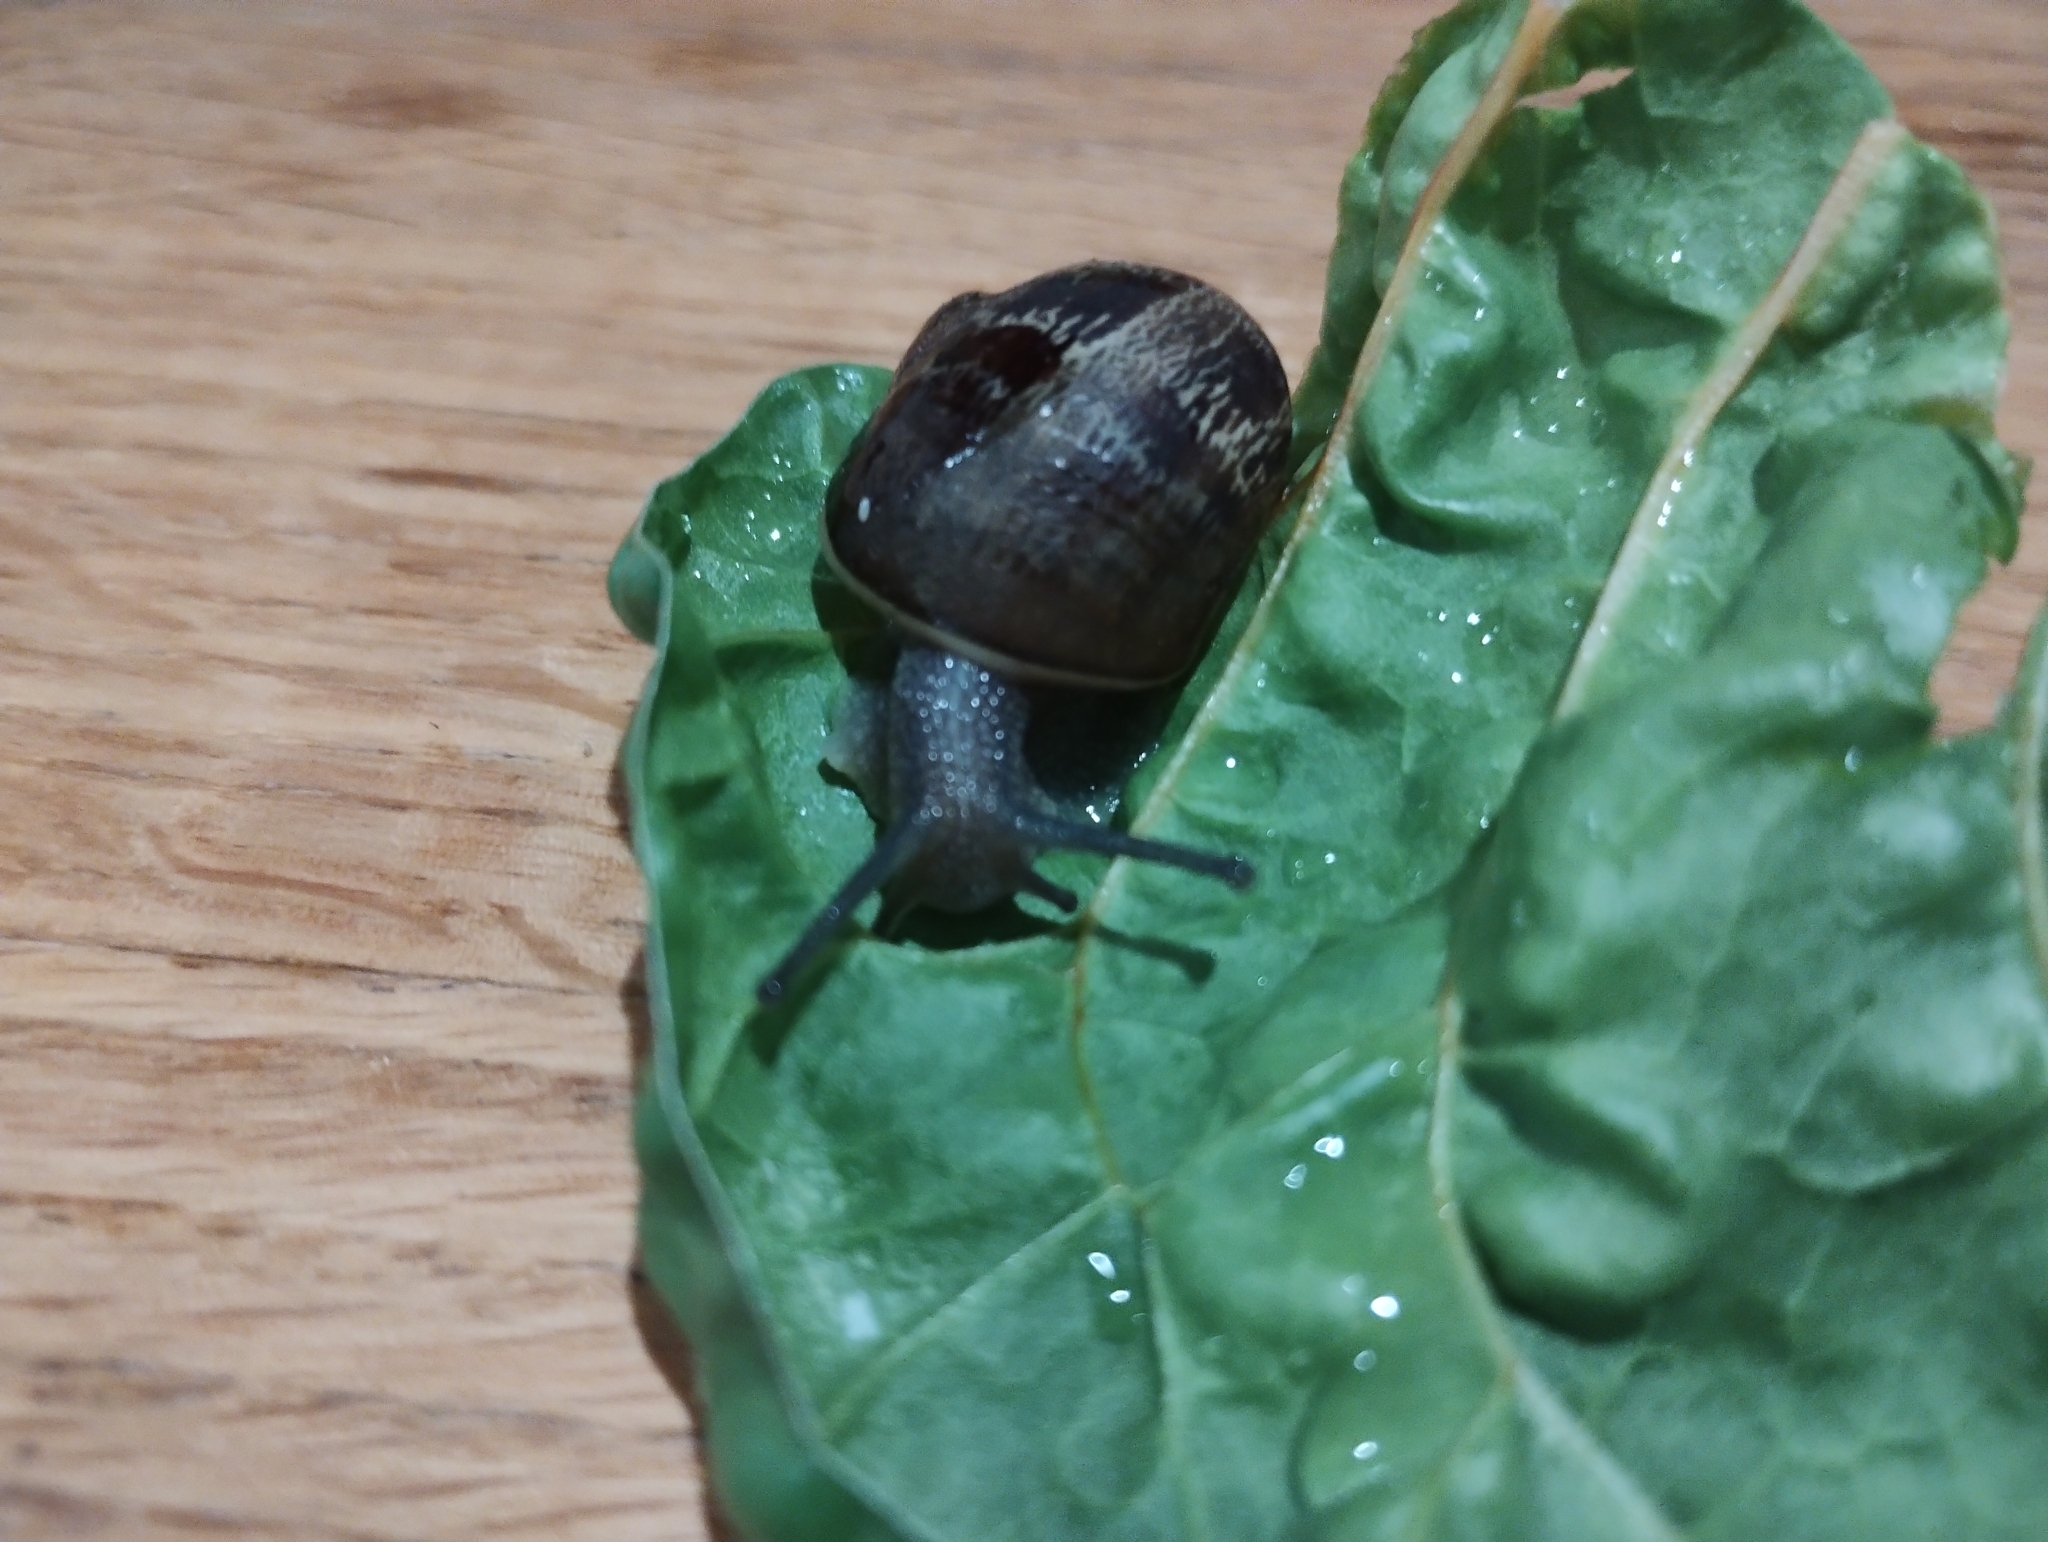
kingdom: Animalia
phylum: Mollusca
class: Gastropoda
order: Stylommatophora
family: Helicidae
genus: Cornu
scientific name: Cornu aspersum
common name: Brown garden snail
